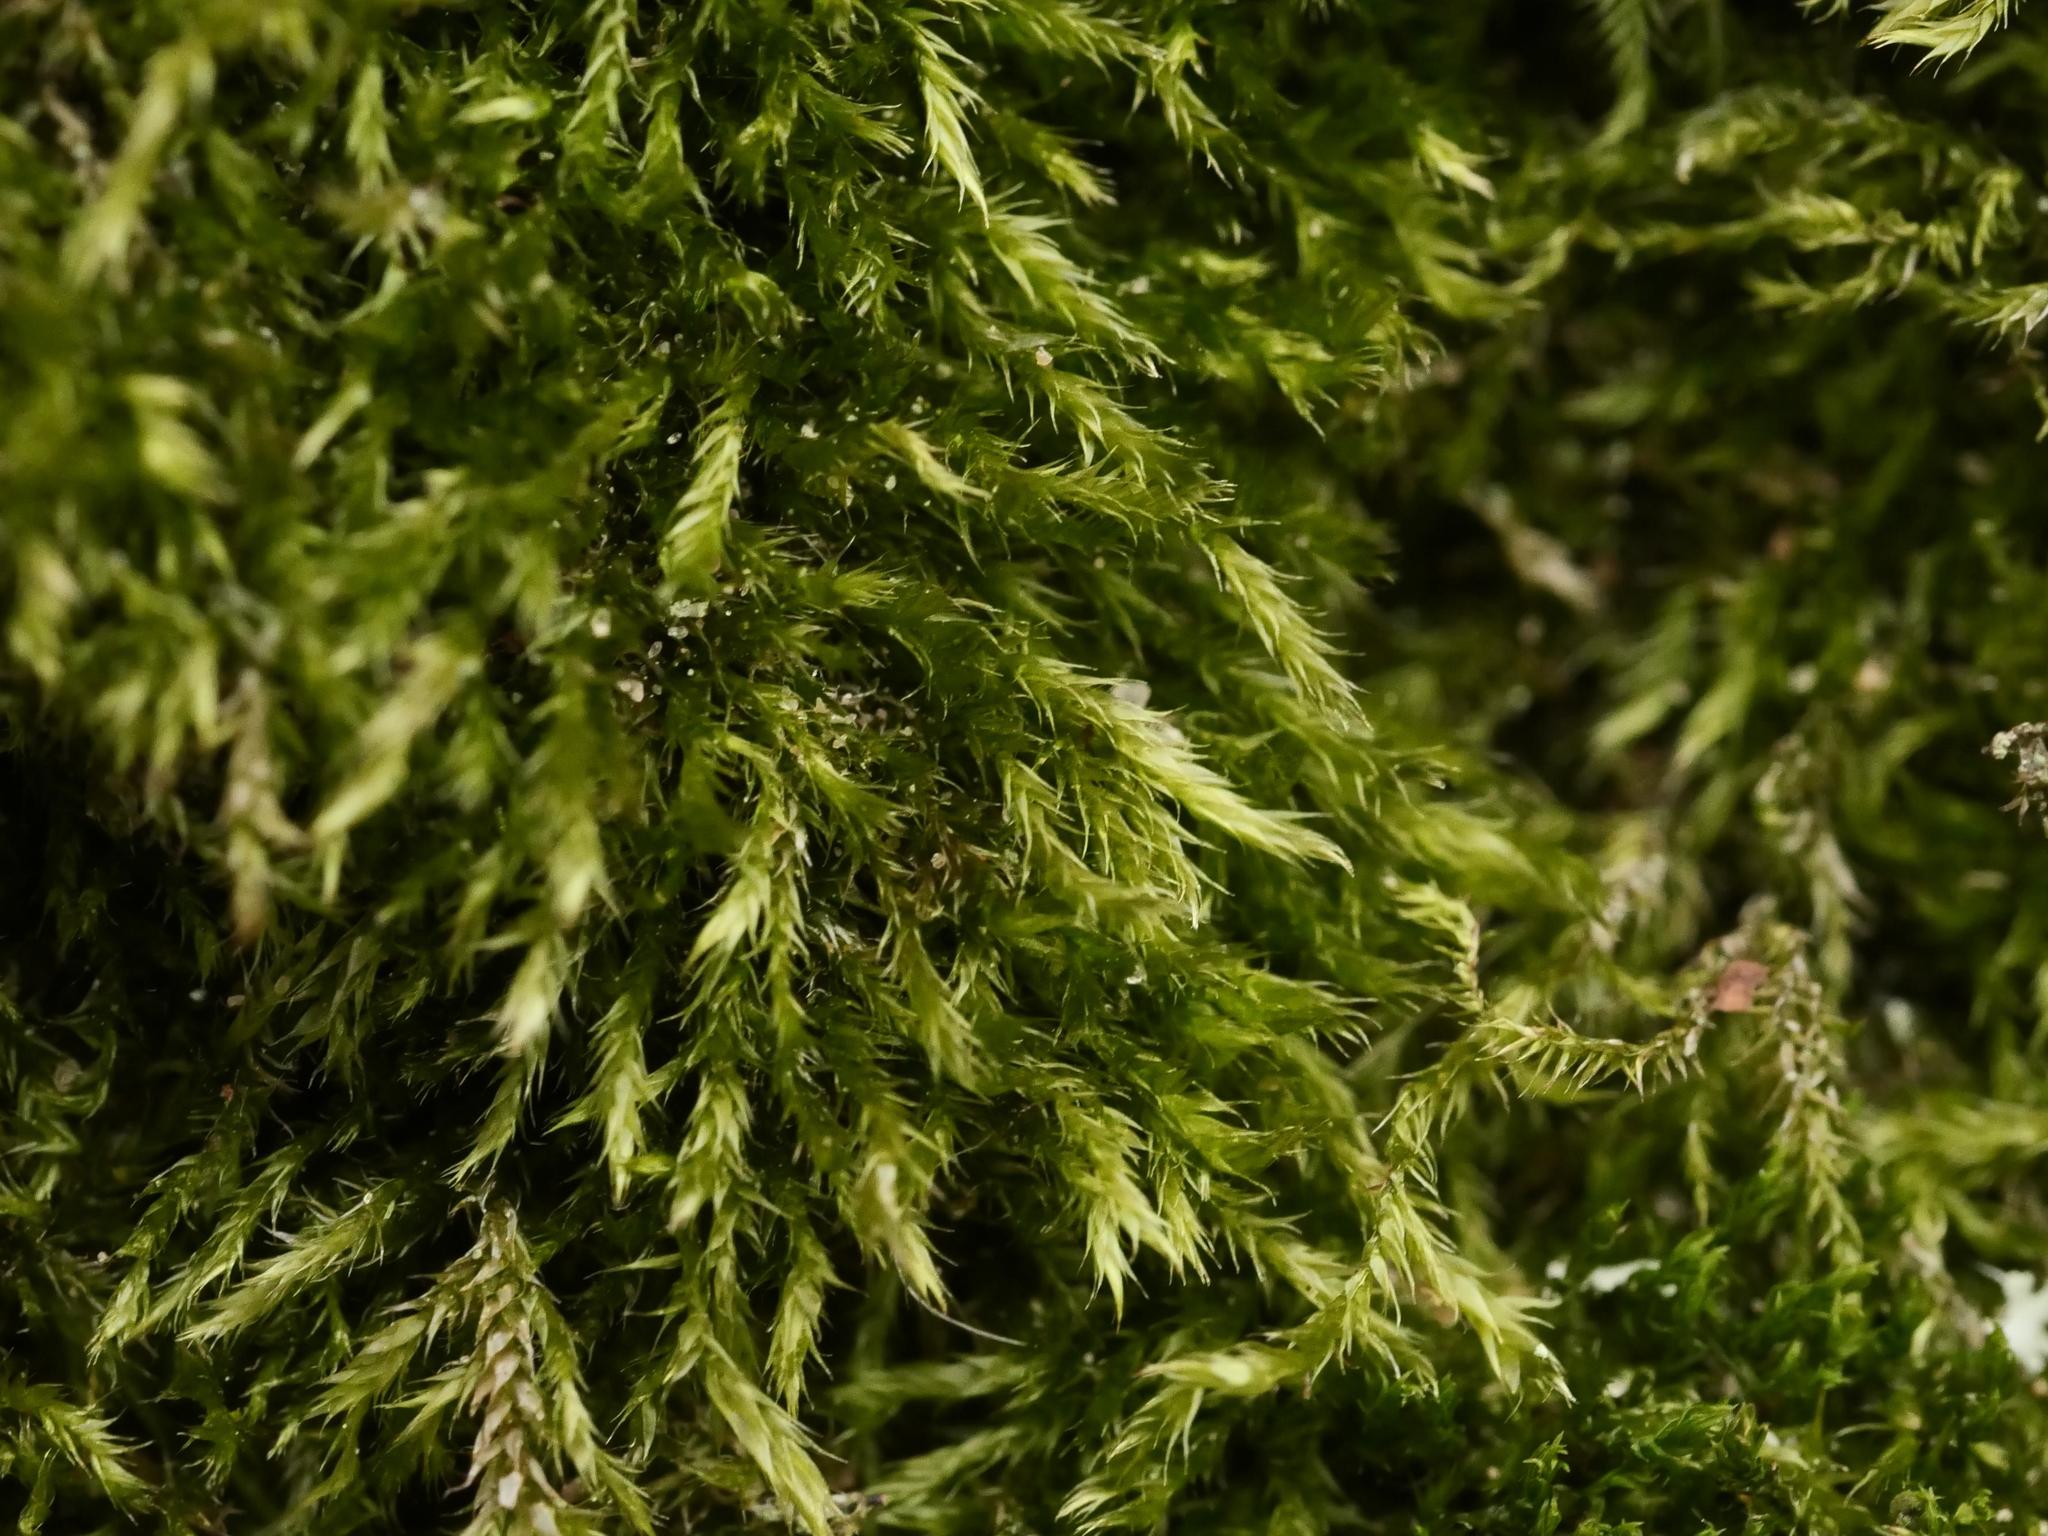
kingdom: Plantae
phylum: Bryophyta
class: Bryopsida
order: Hypnales
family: Hypnaceae
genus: Hypnum
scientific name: Hypnum cupressiforme
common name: Cypress-leaved plait-moss
